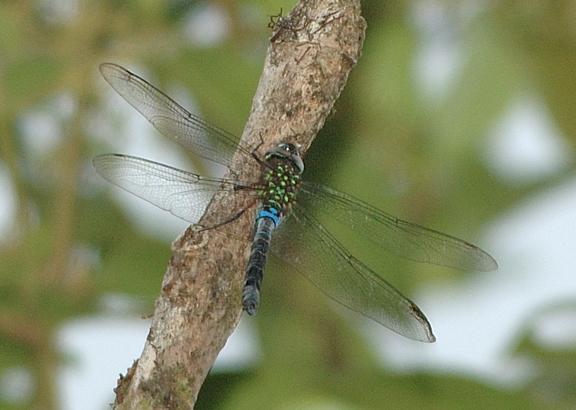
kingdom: Animalia
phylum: Arthropoda
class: Insecta
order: Odonata
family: Aeshnidae
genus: Rhionaeschna
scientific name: Rhionaeschna joannisi
